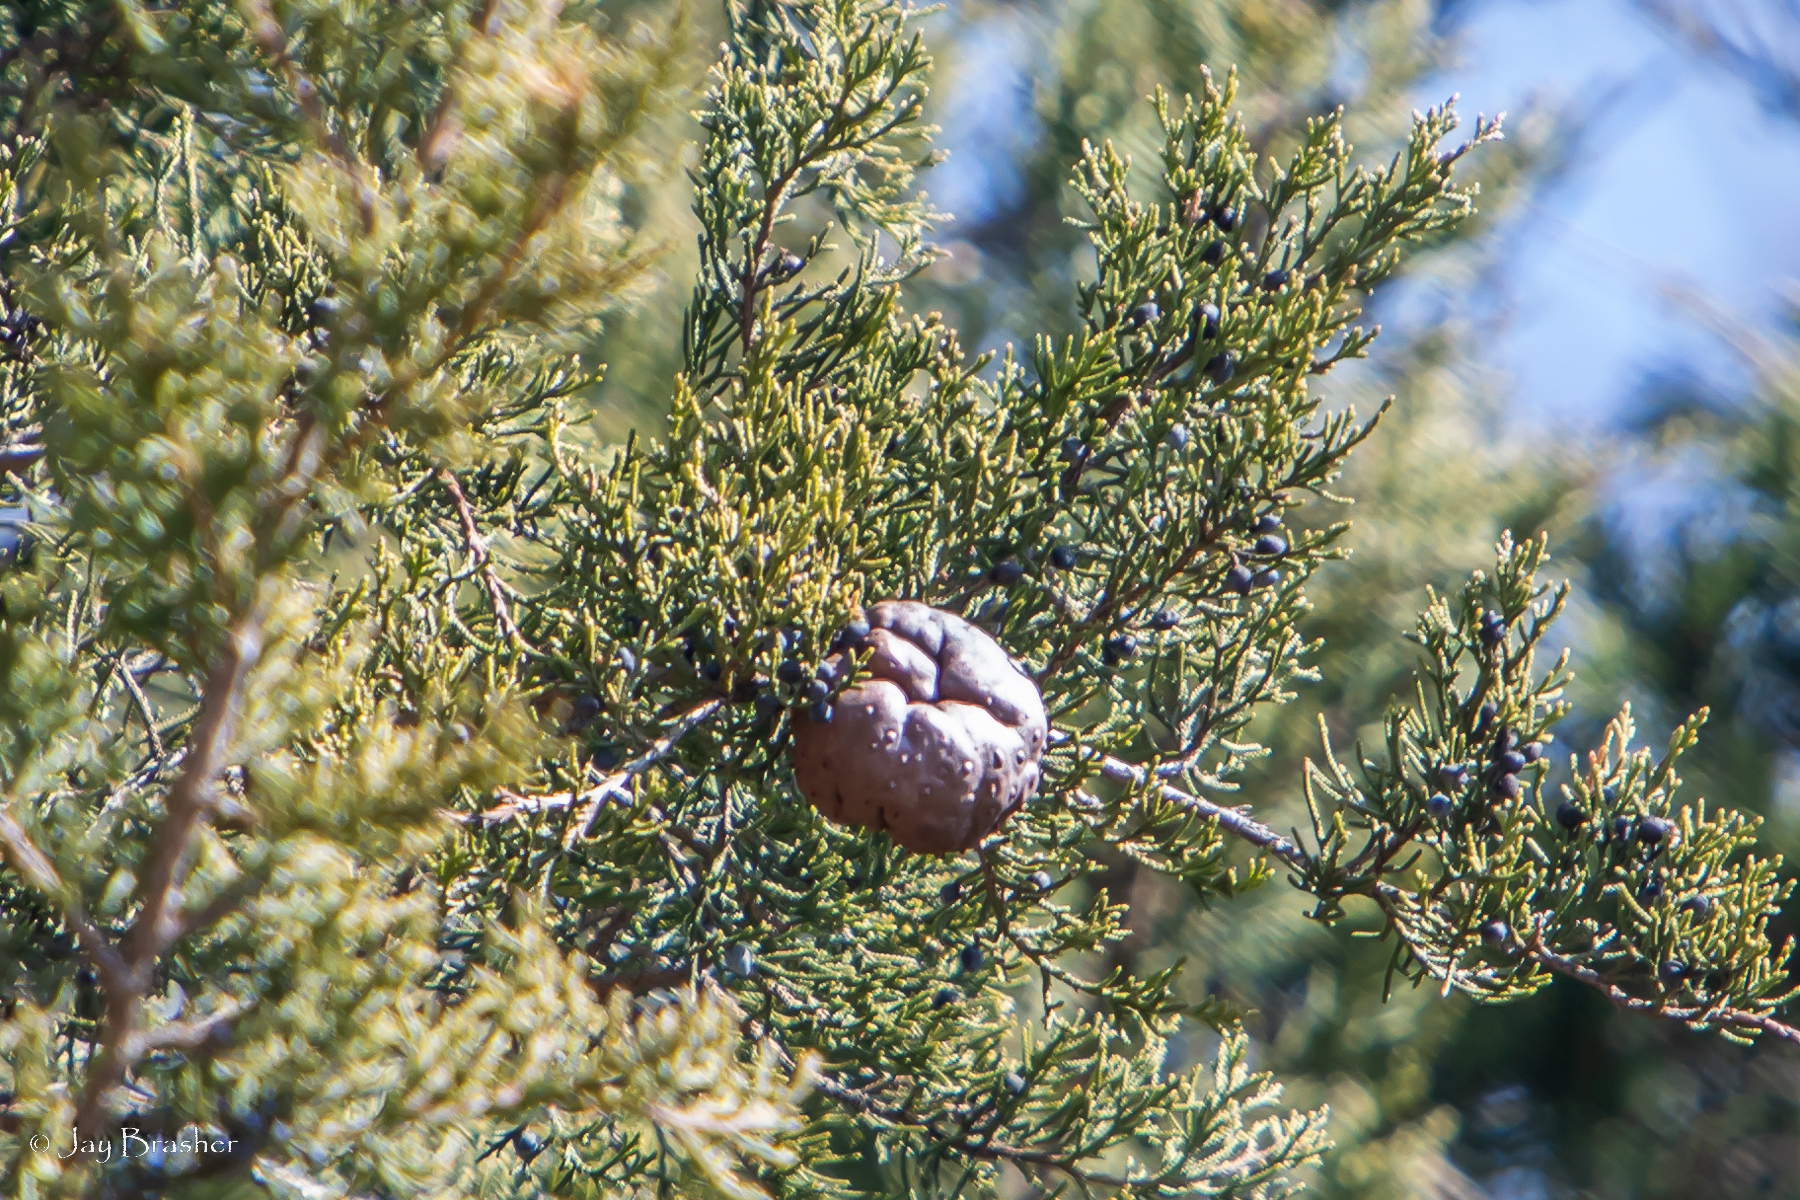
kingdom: Fungi
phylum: Basidiomycota
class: Pucciniomycetes
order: Pucciniales
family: Gymnosporangiaceae
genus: Gymnosporangium
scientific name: Gymnosporangium juniperi-virginianae
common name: Juniper-apple rust
